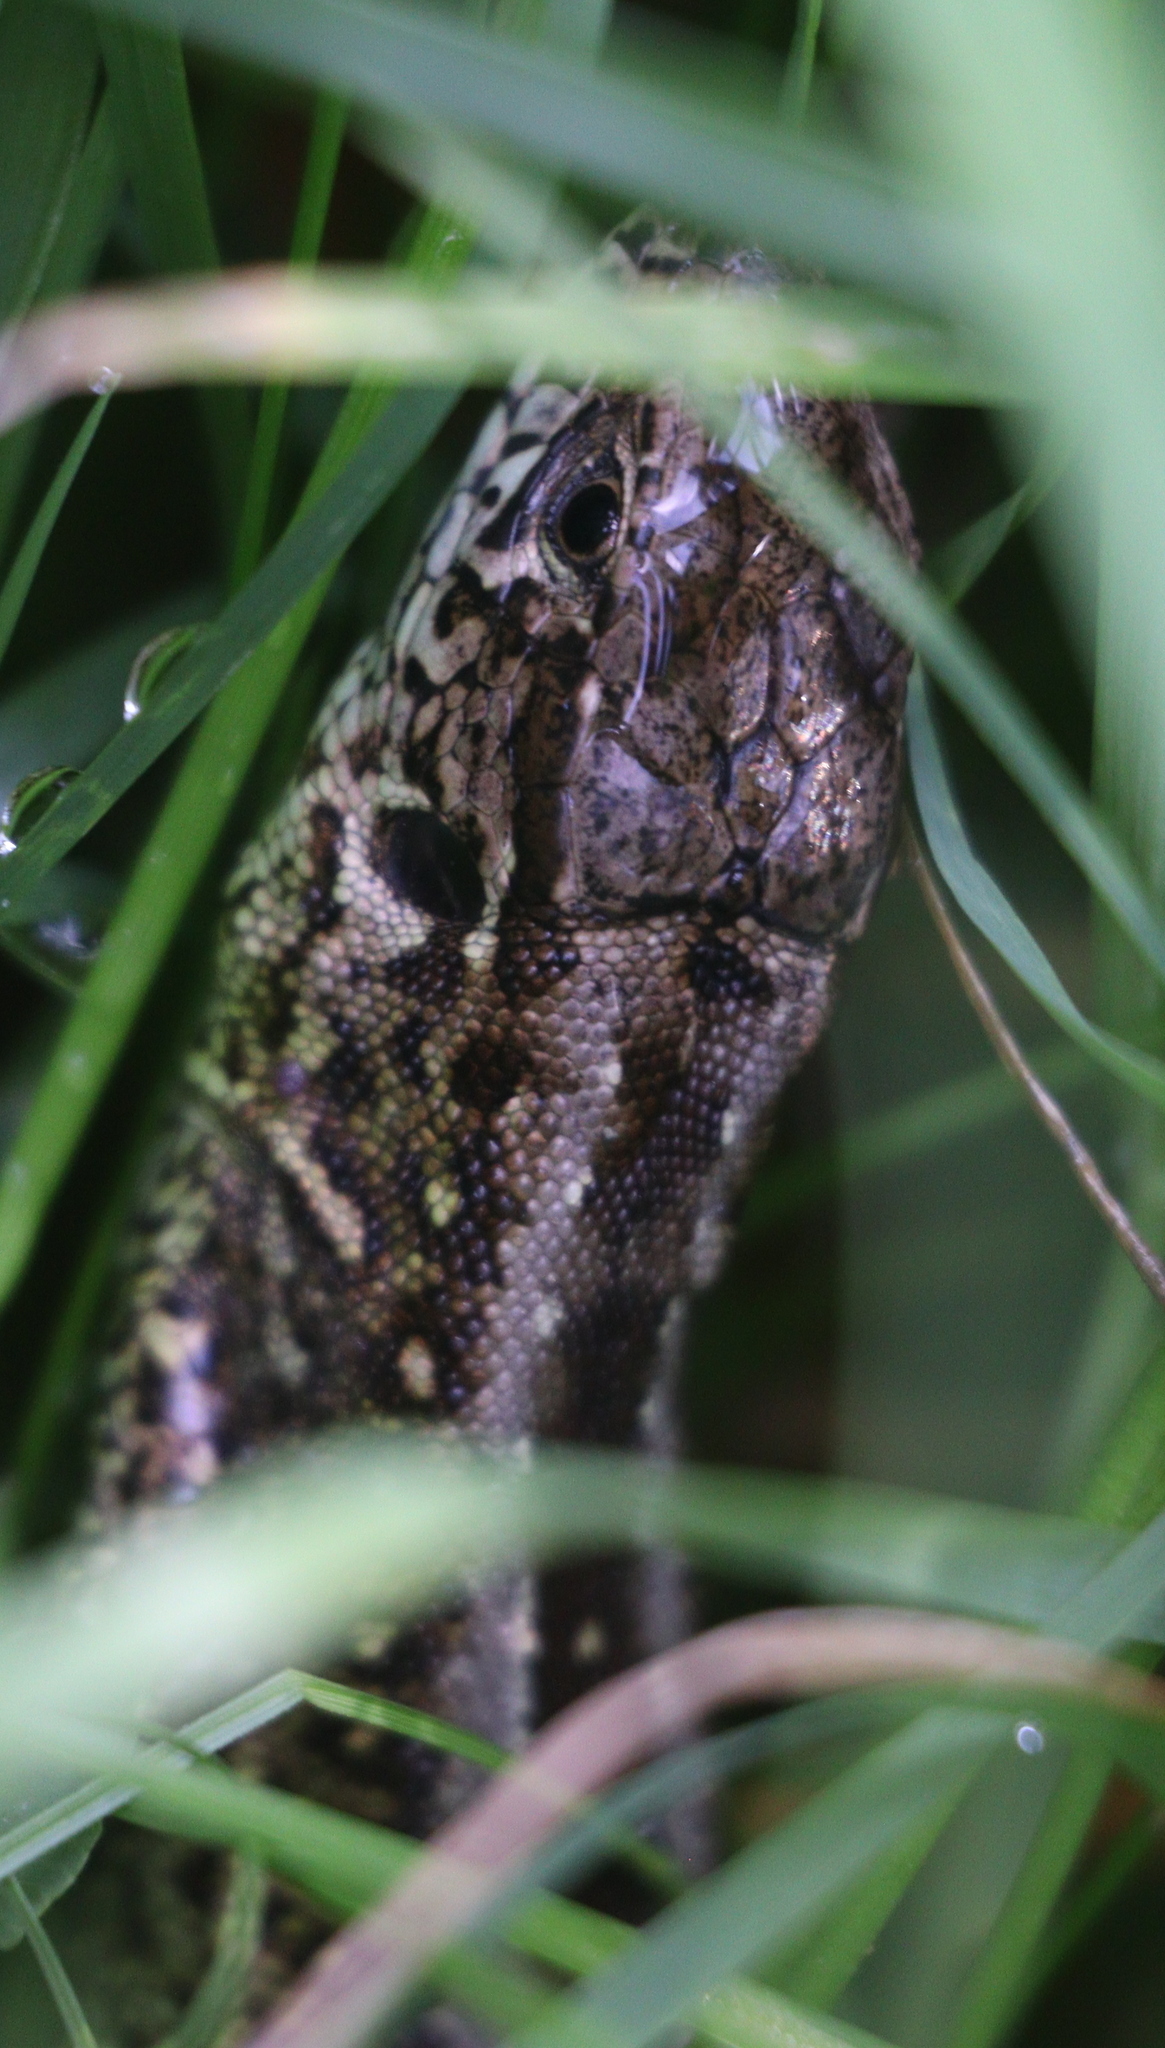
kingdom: Animalia
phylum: Chordata
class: Squamata
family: Lacertidae
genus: Lacerta
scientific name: Lacerta agilis
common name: Sand lizard
